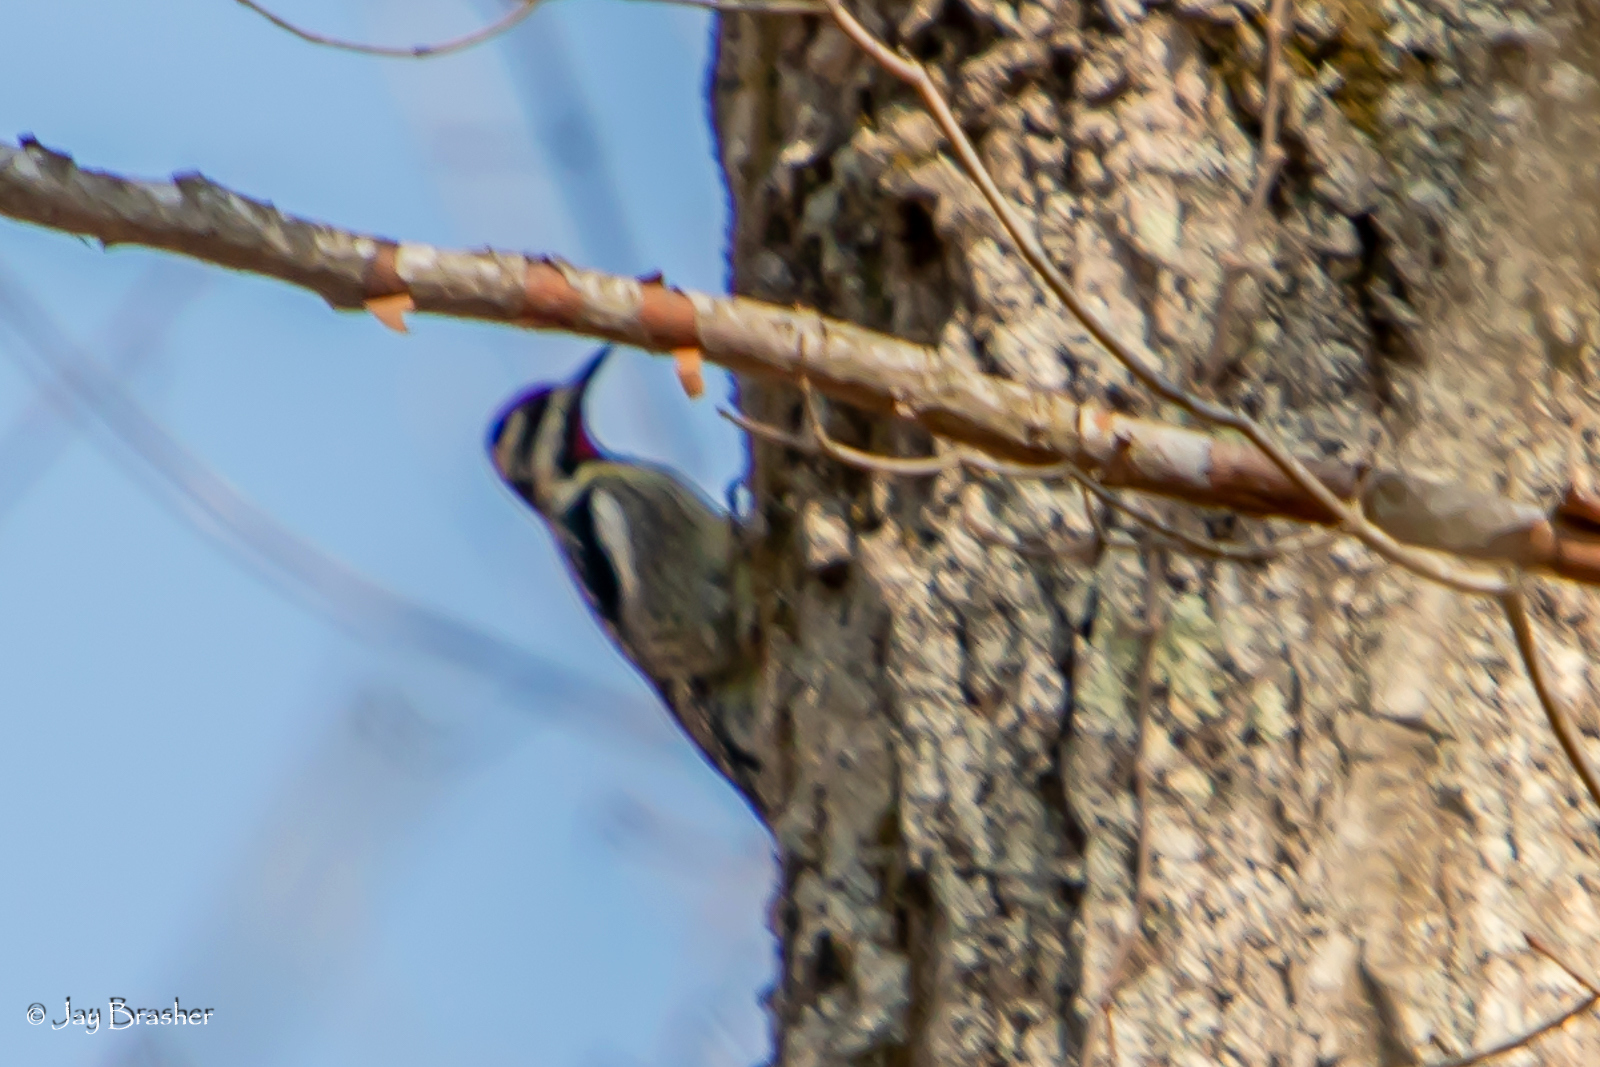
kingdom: Animalia
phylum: Chordata
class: Aves
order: Piciformes
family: Picidae
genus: Sphyrapicus
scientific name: Sphyrapicus varius
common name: Yellow-bellied sapsucker
